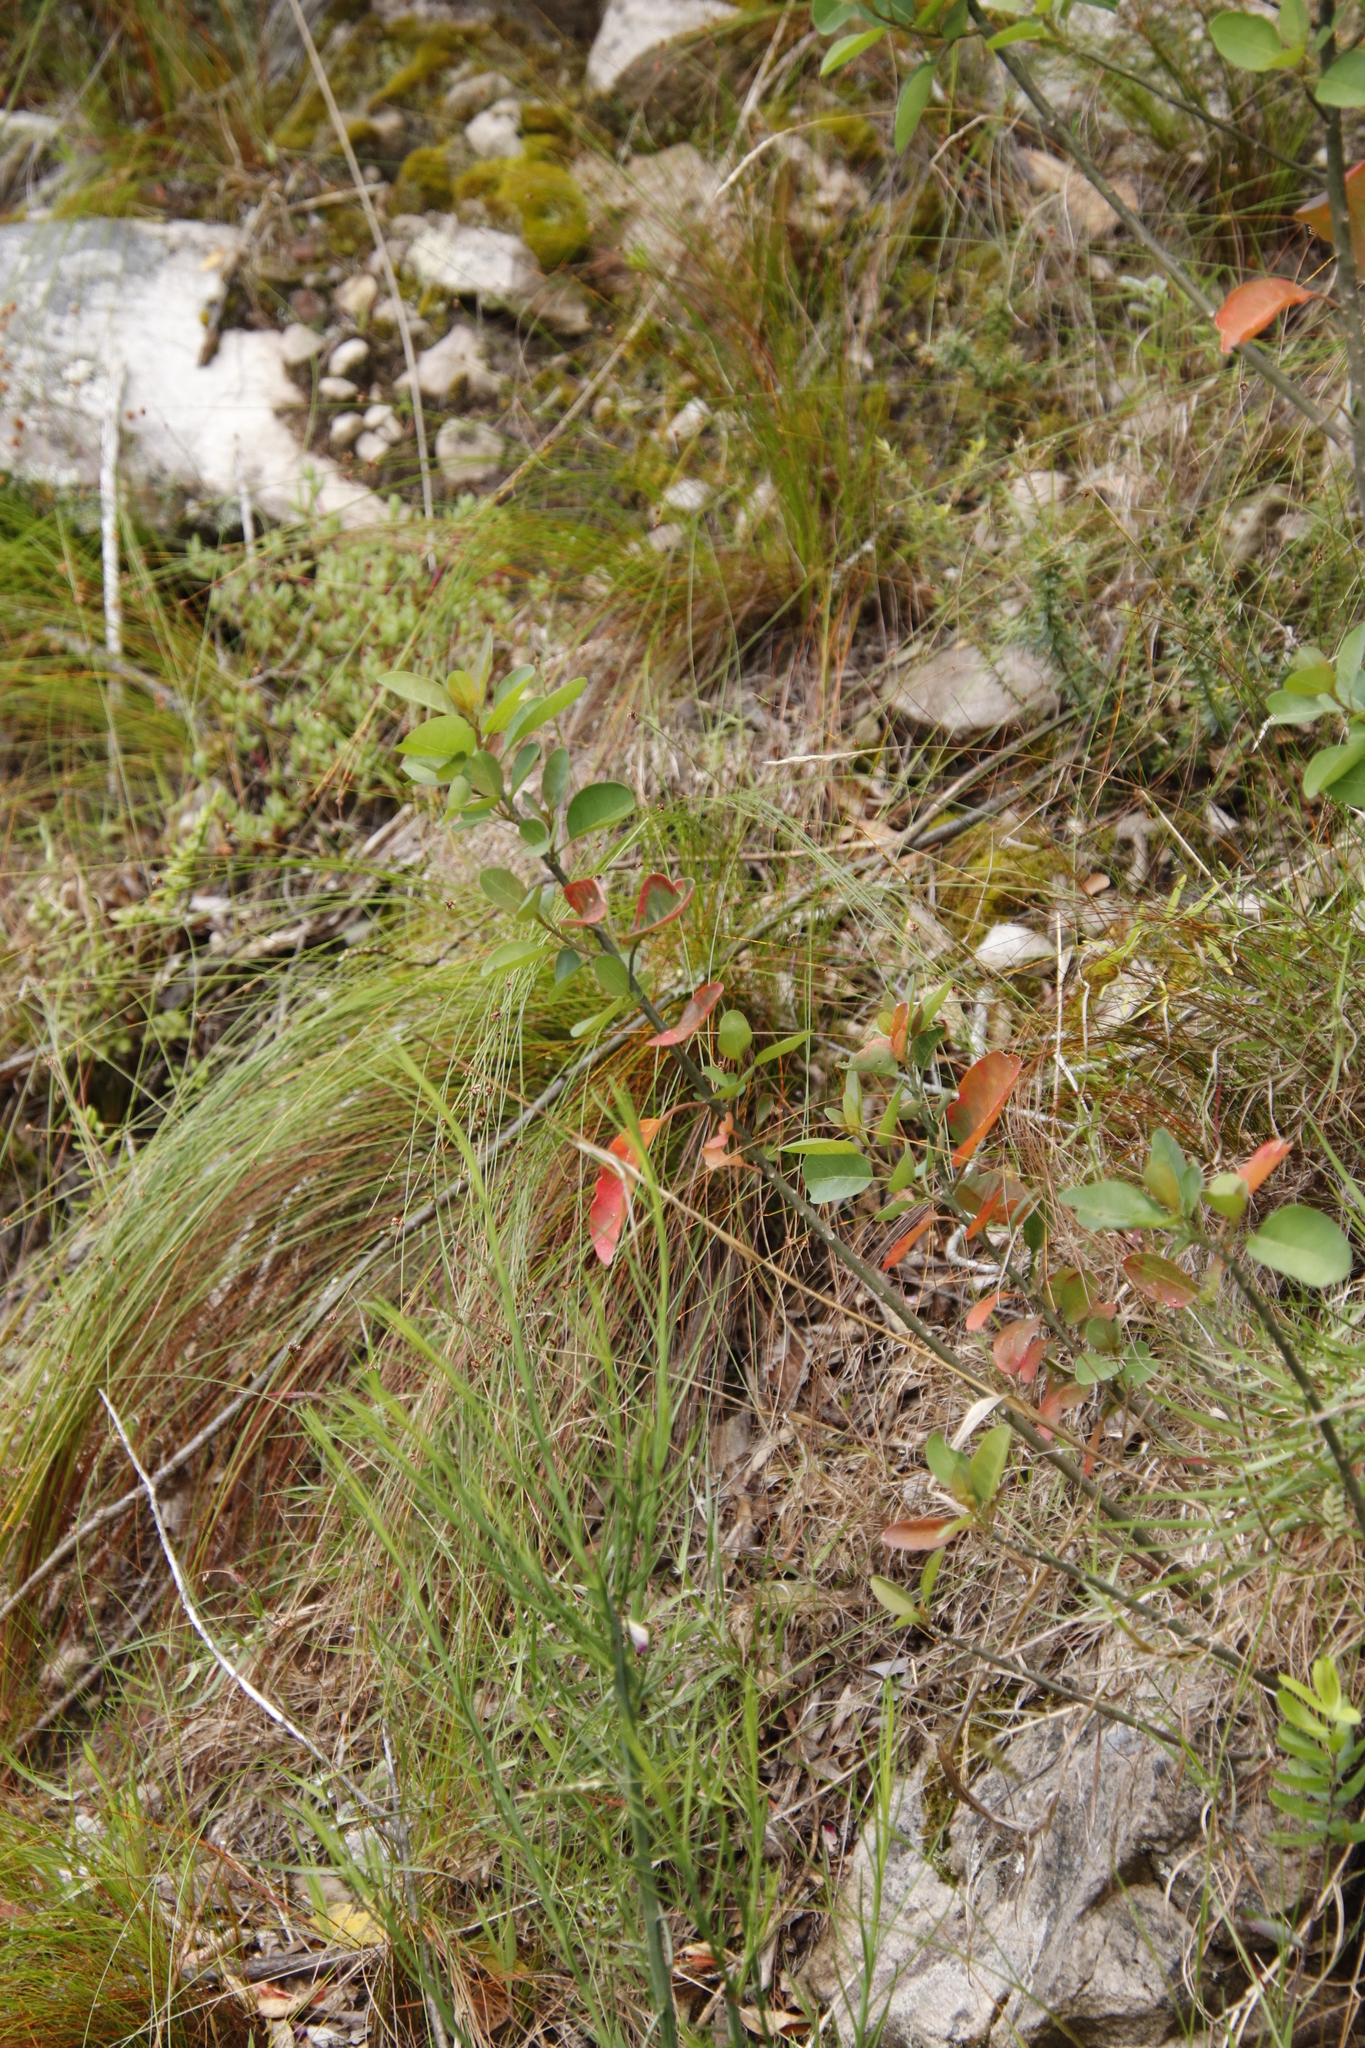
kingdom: Plantae
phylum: Tracheophyta
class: Magnoliopsida
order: Malpighiales
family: Peraceae
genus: Clutia
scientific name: Clutia pulchella
